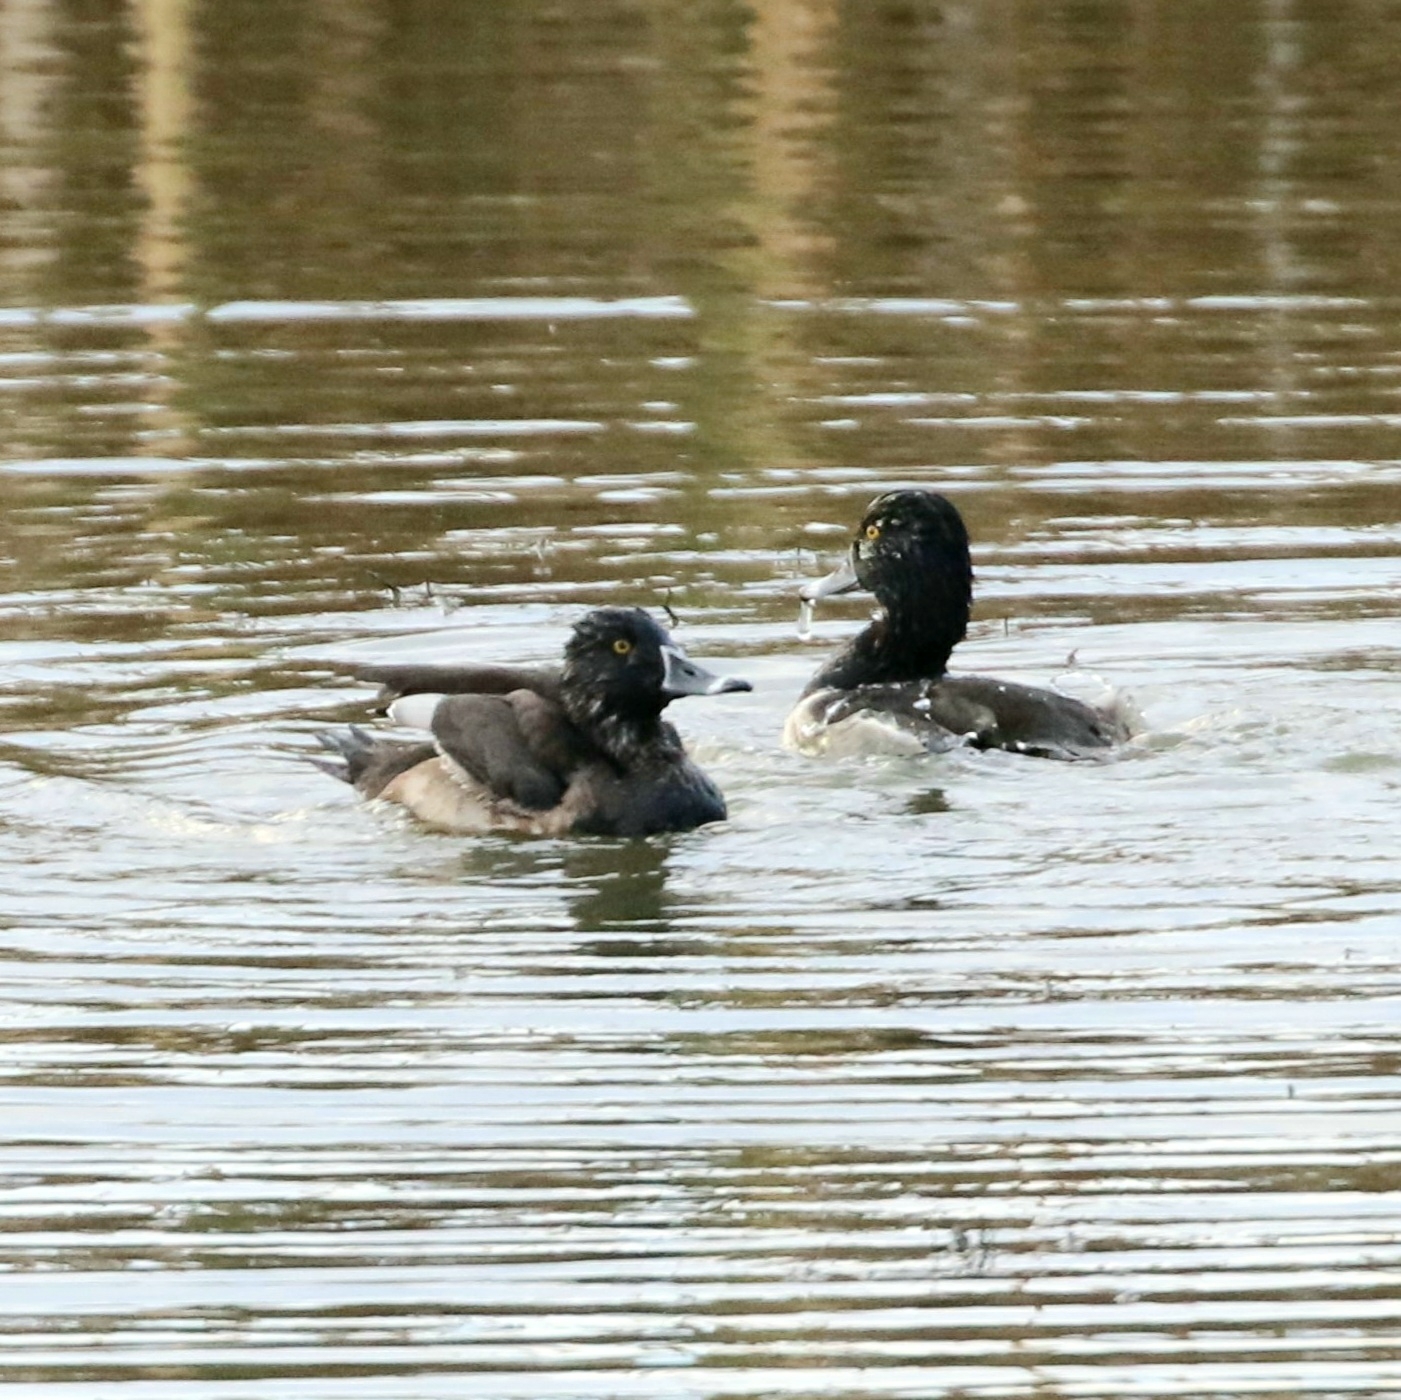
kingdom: Animalia
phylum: Chordata
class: Aves
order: Anseriformes
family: Anatidae
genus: Aythya
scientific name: Aythya collaris
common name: Ring-necked duck
